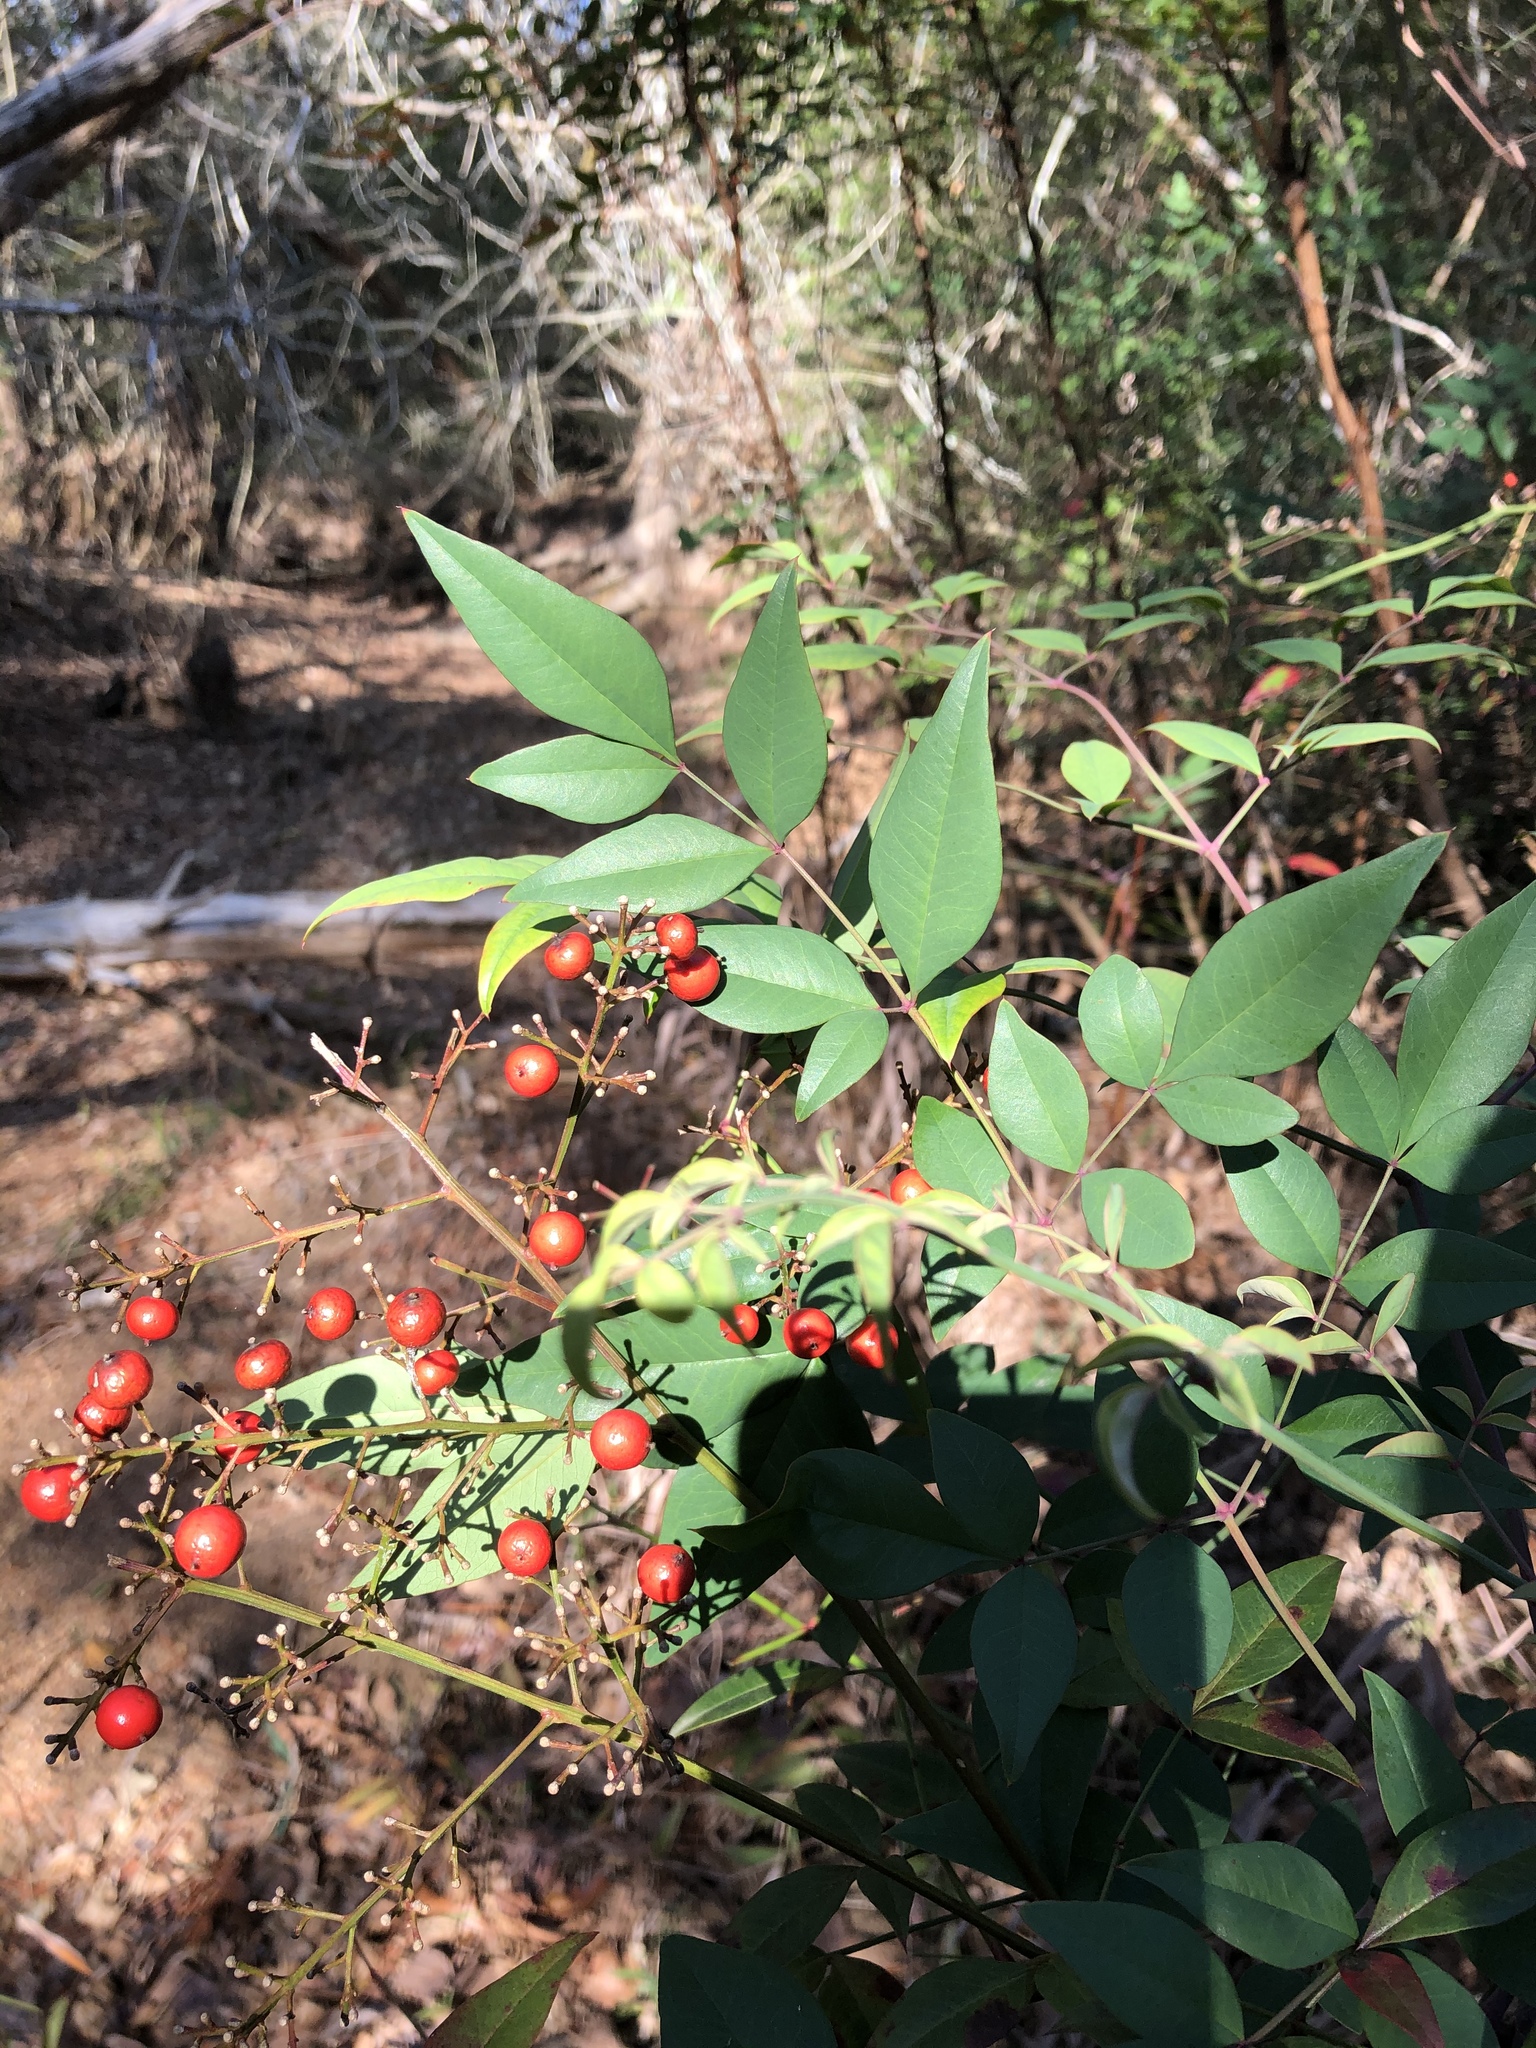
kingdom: Plantae
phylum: Tracheophyta
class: Magnoliopsida
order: Ranunculales
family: Berberidaceae
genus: Nandina
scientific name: Nandina domestica
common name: Sacred bamboo
